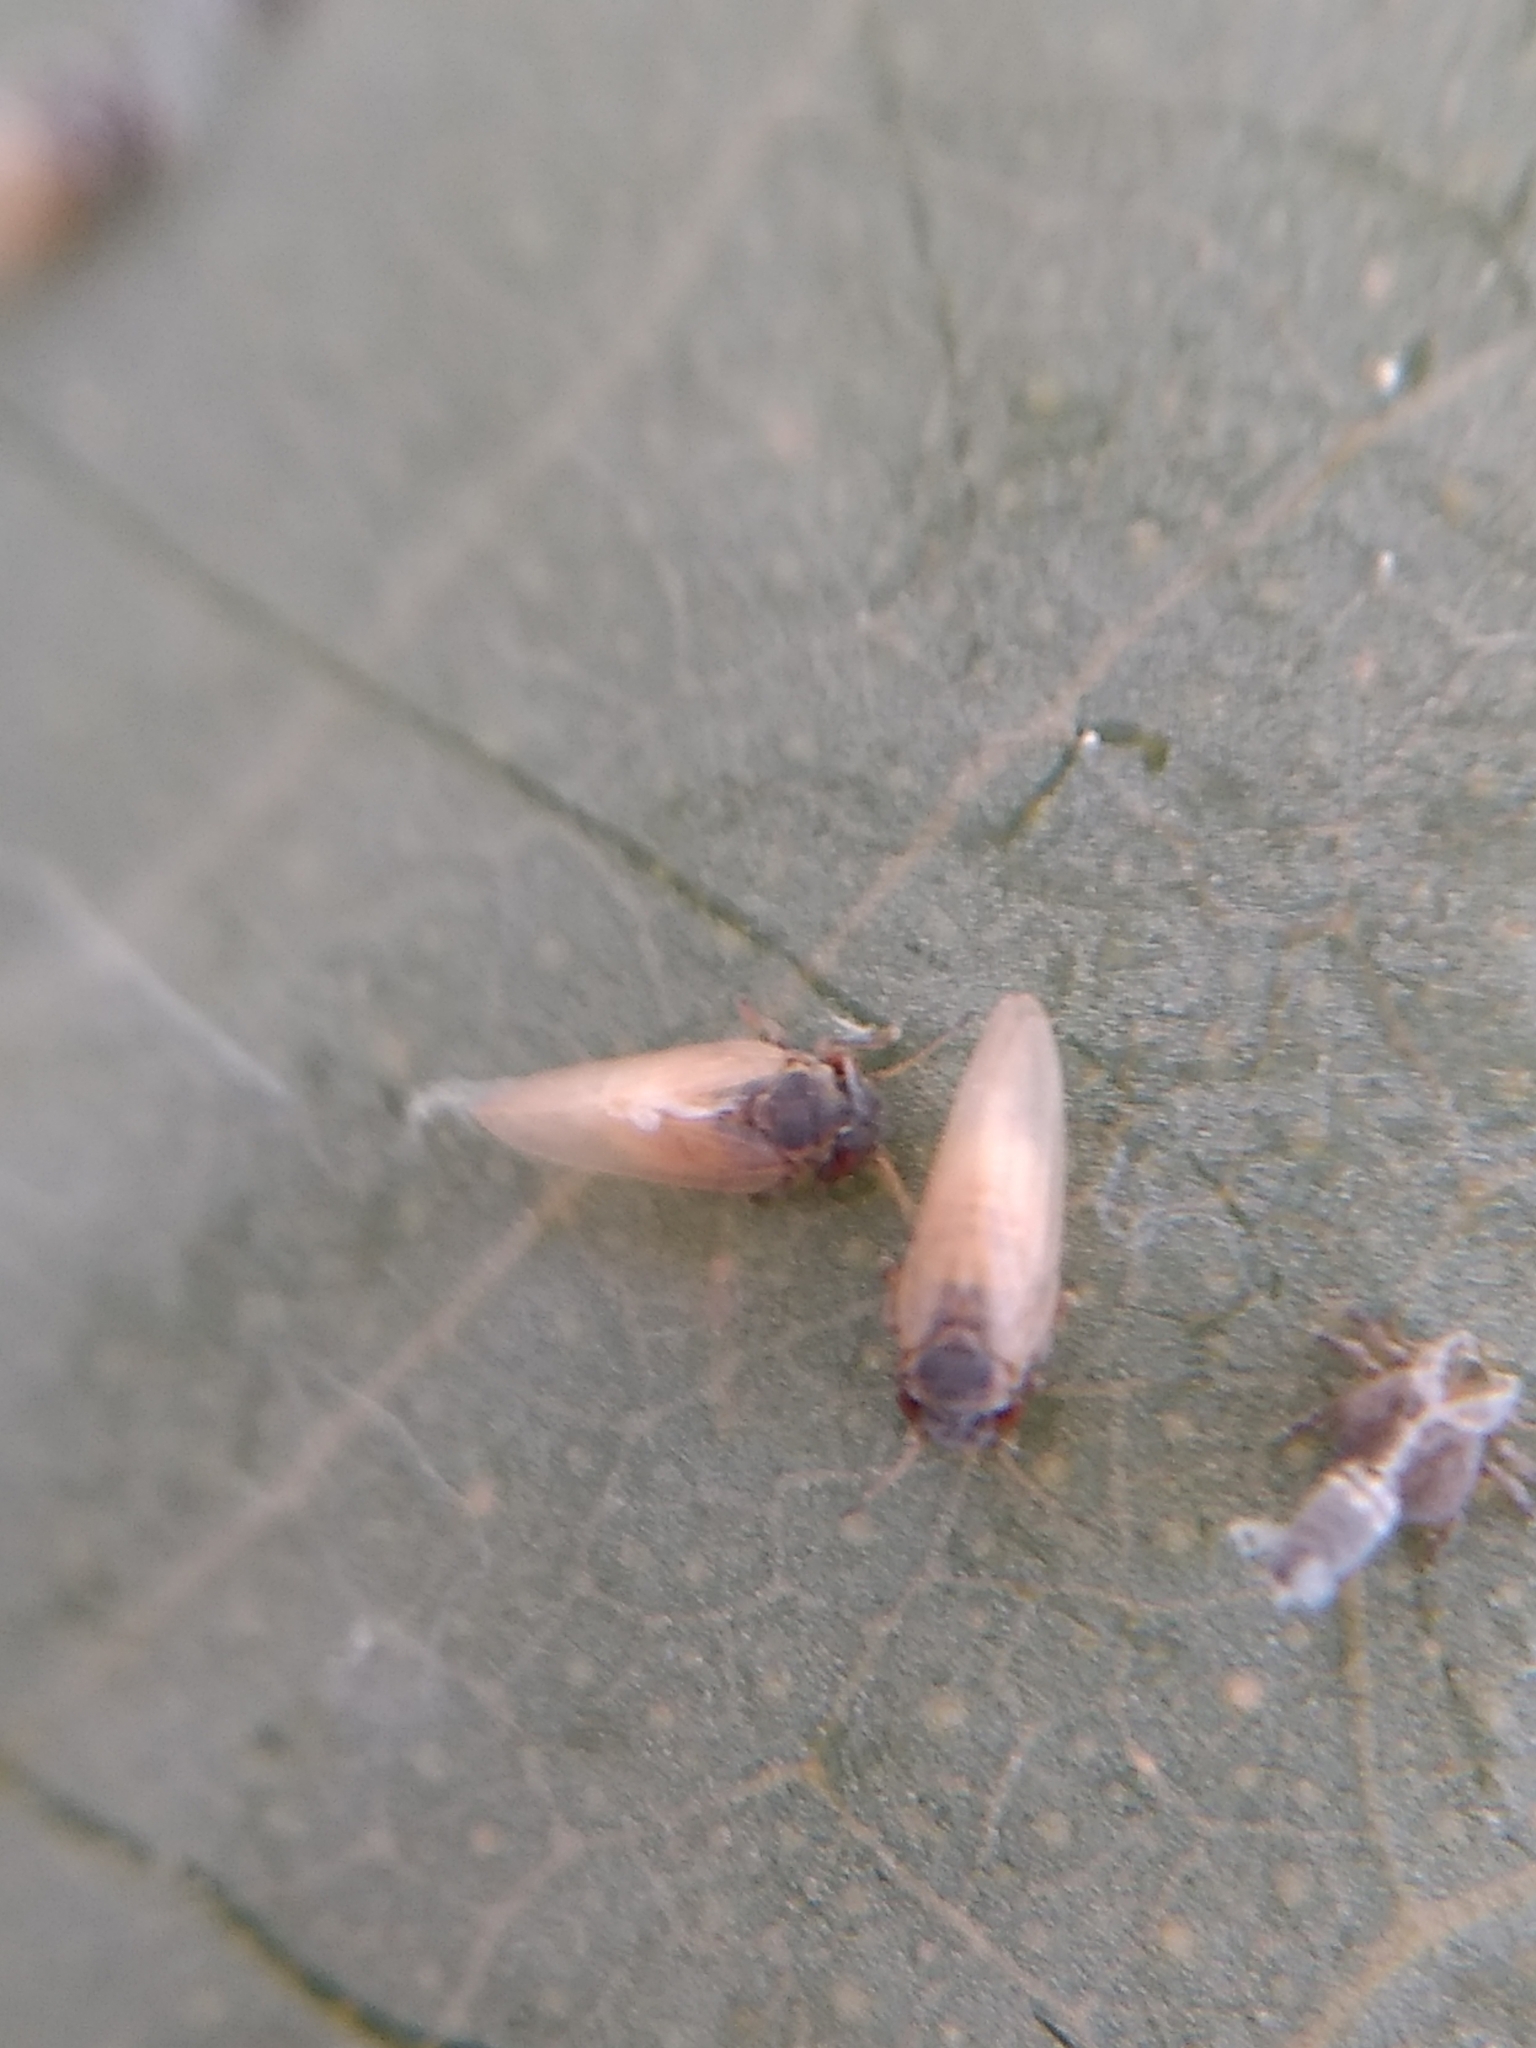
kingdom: Animalia
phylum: Arthropoda
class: Insecta
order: Hemiptera
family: Aphalaridae
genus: Ctenarytaina
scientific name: Ctenarytaina eucalypti
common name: Blue gum psyllid
